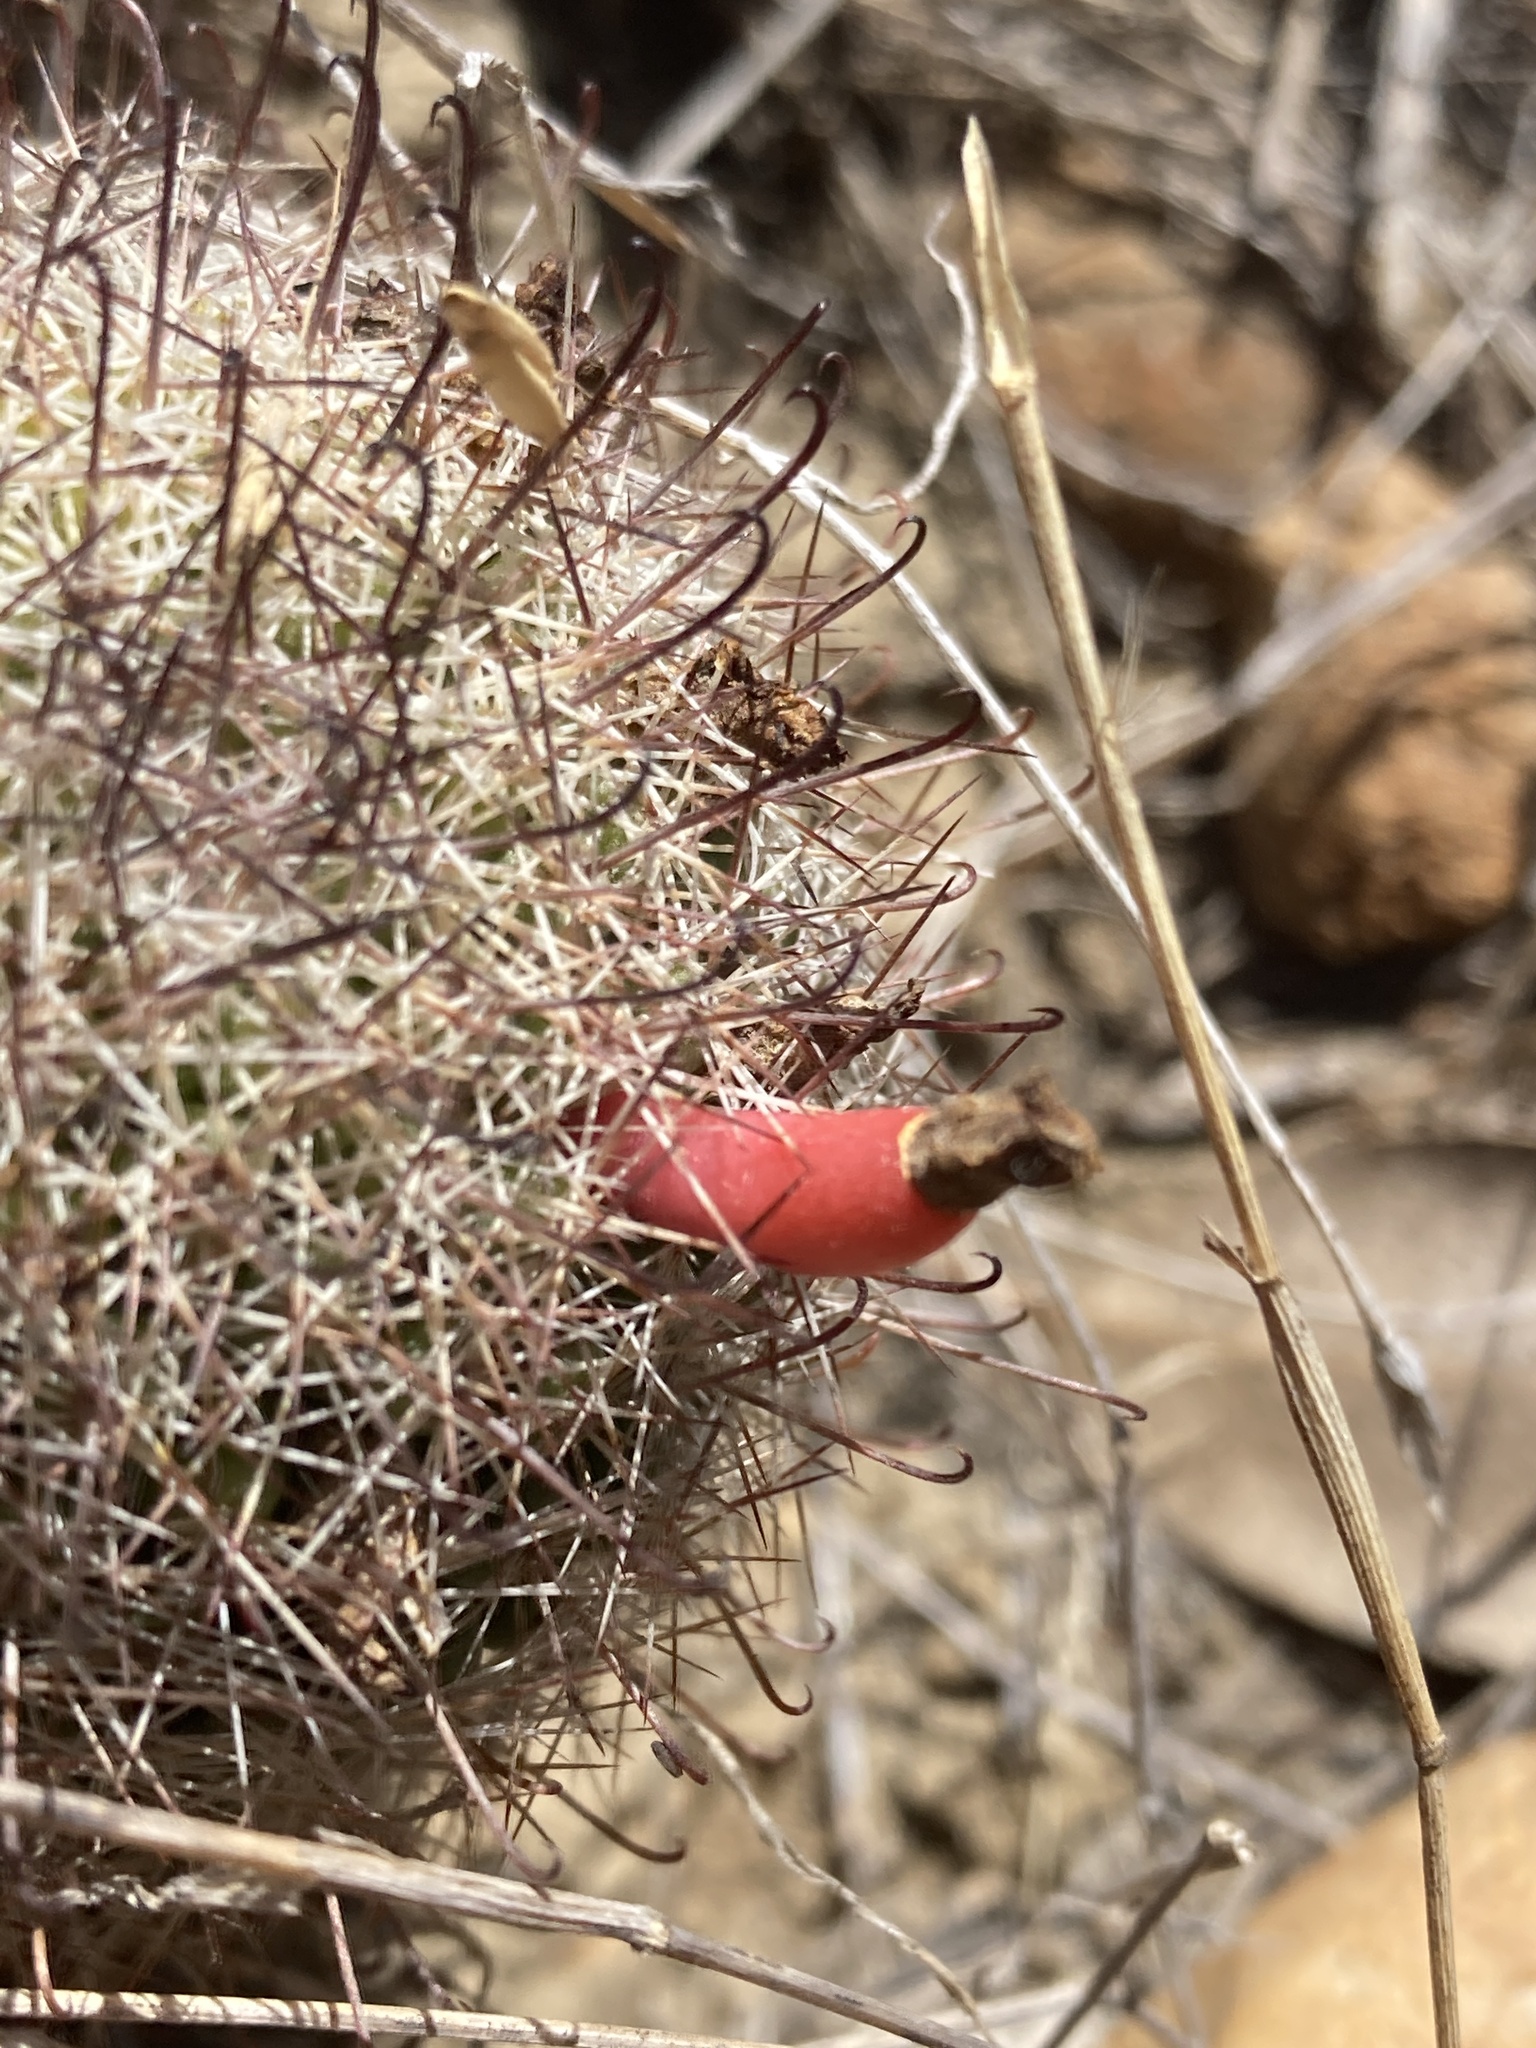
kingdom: Plantae
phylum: Tracheophyta
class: Magnoliopsida
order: Caryophyllales
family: Cactaceae
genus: Cochemiea
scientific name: Cochemiea dioica
